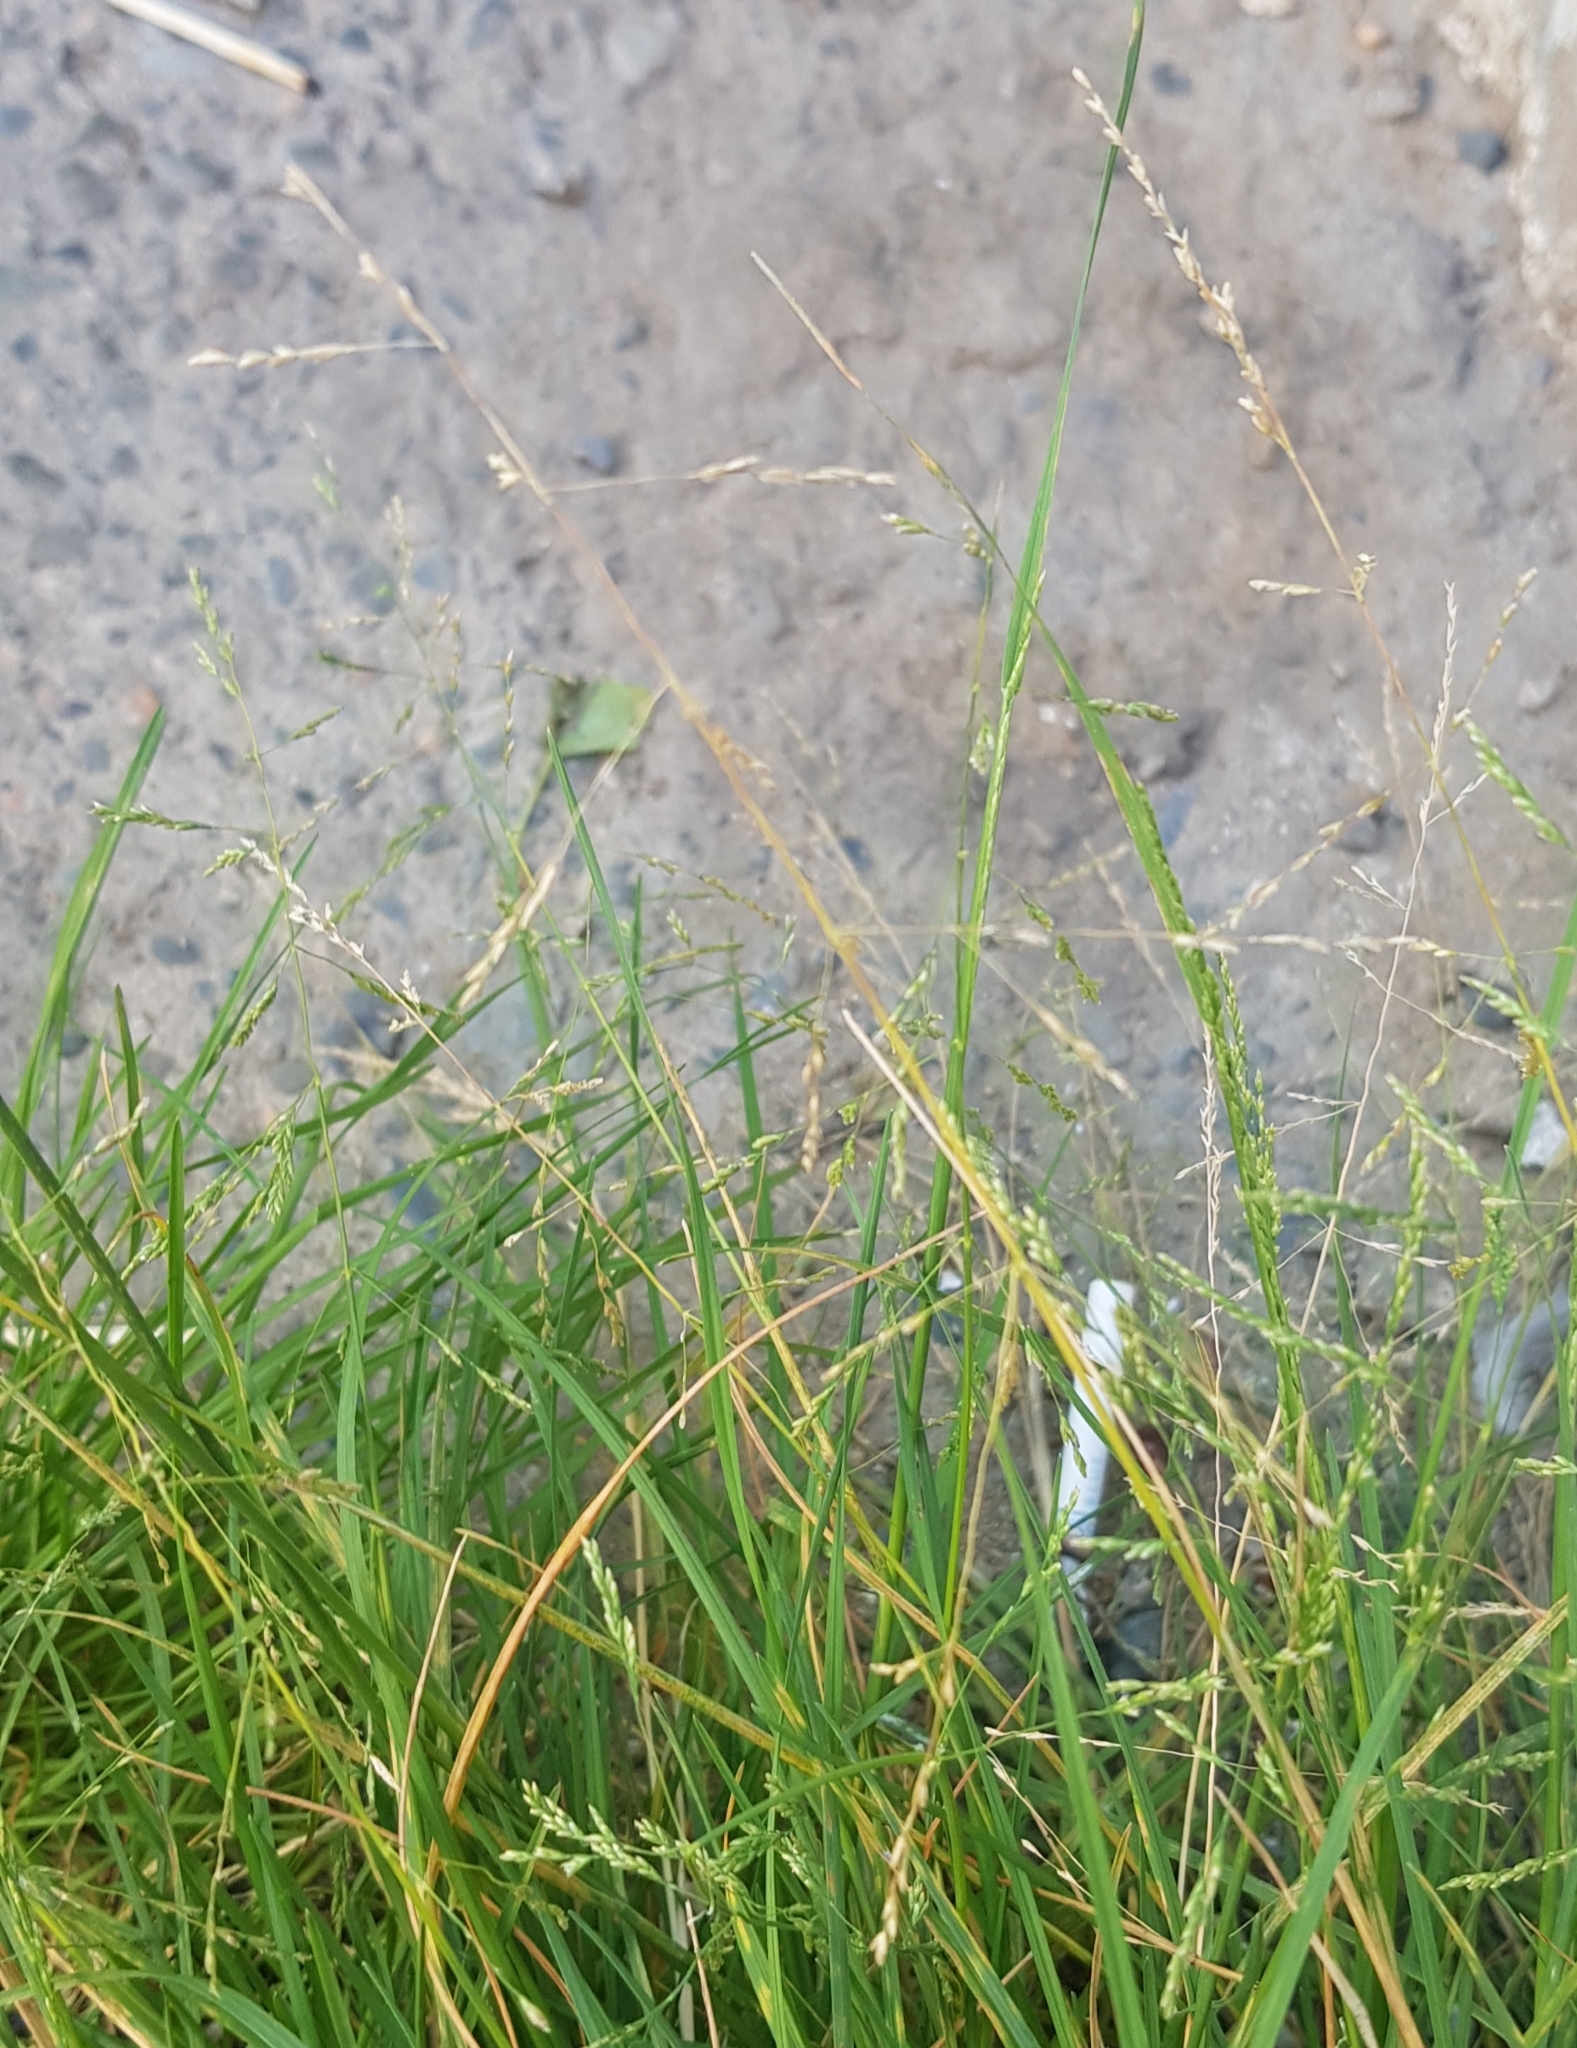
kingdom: Plantae
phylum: Tracheophyta
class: Liliopsida
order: Poales
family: Poaceae
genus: Puccinellia
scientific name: Puccinellia distans
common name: Weeping alkaligrass
